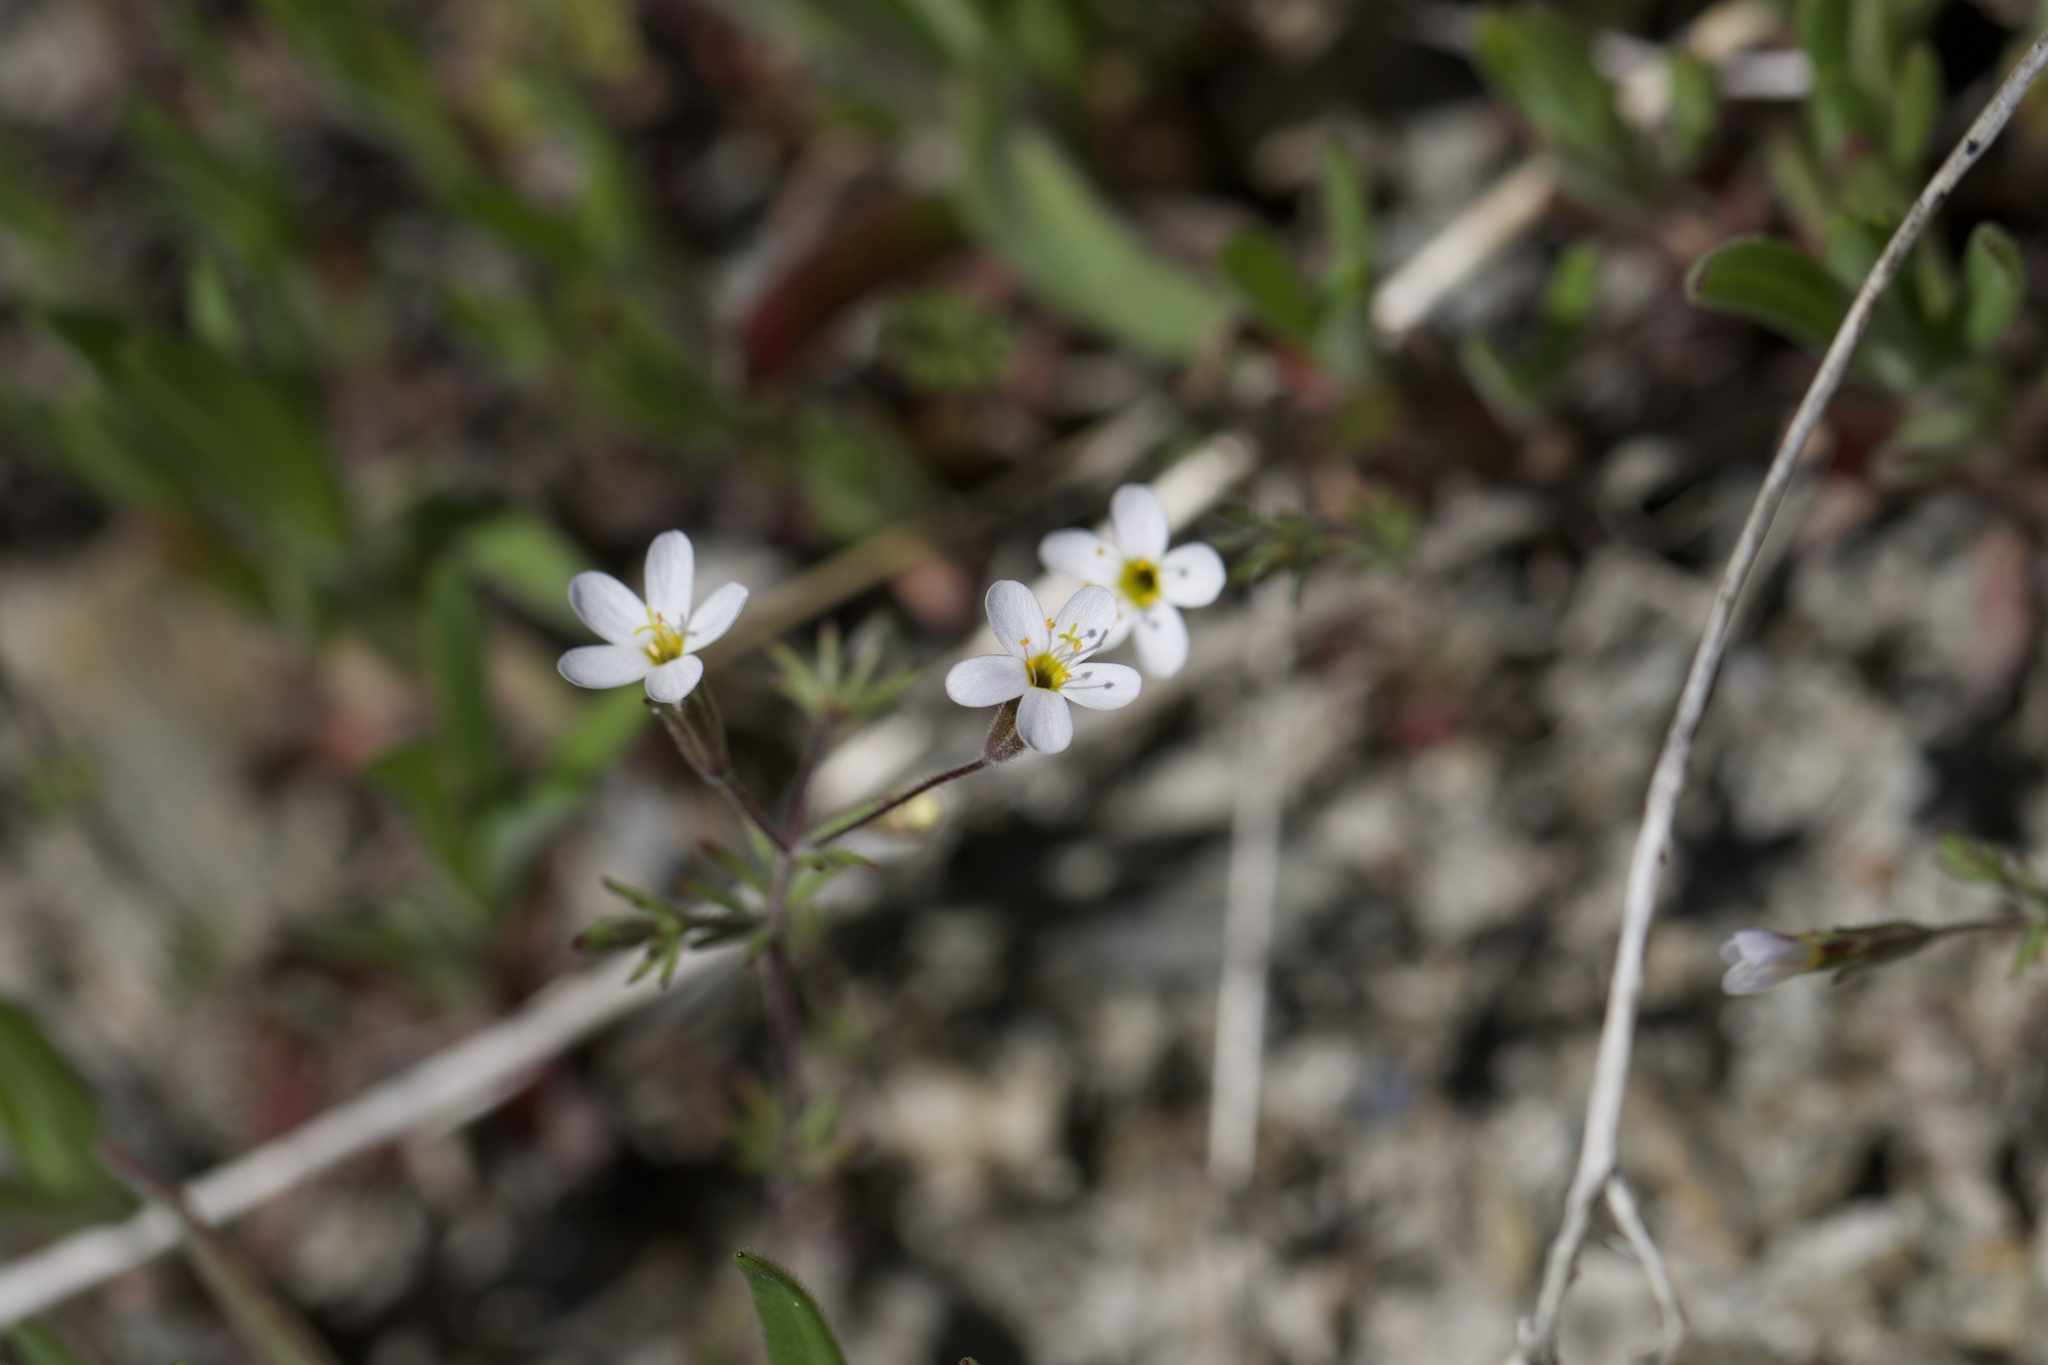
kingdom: Plantae
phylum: Tracheophyta
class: Magnoliopsida
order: Ericales
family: Polemoniaceae
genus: Leptosiphon
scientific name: Leptosiphon bolanderi
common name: Bolander's linanthus
